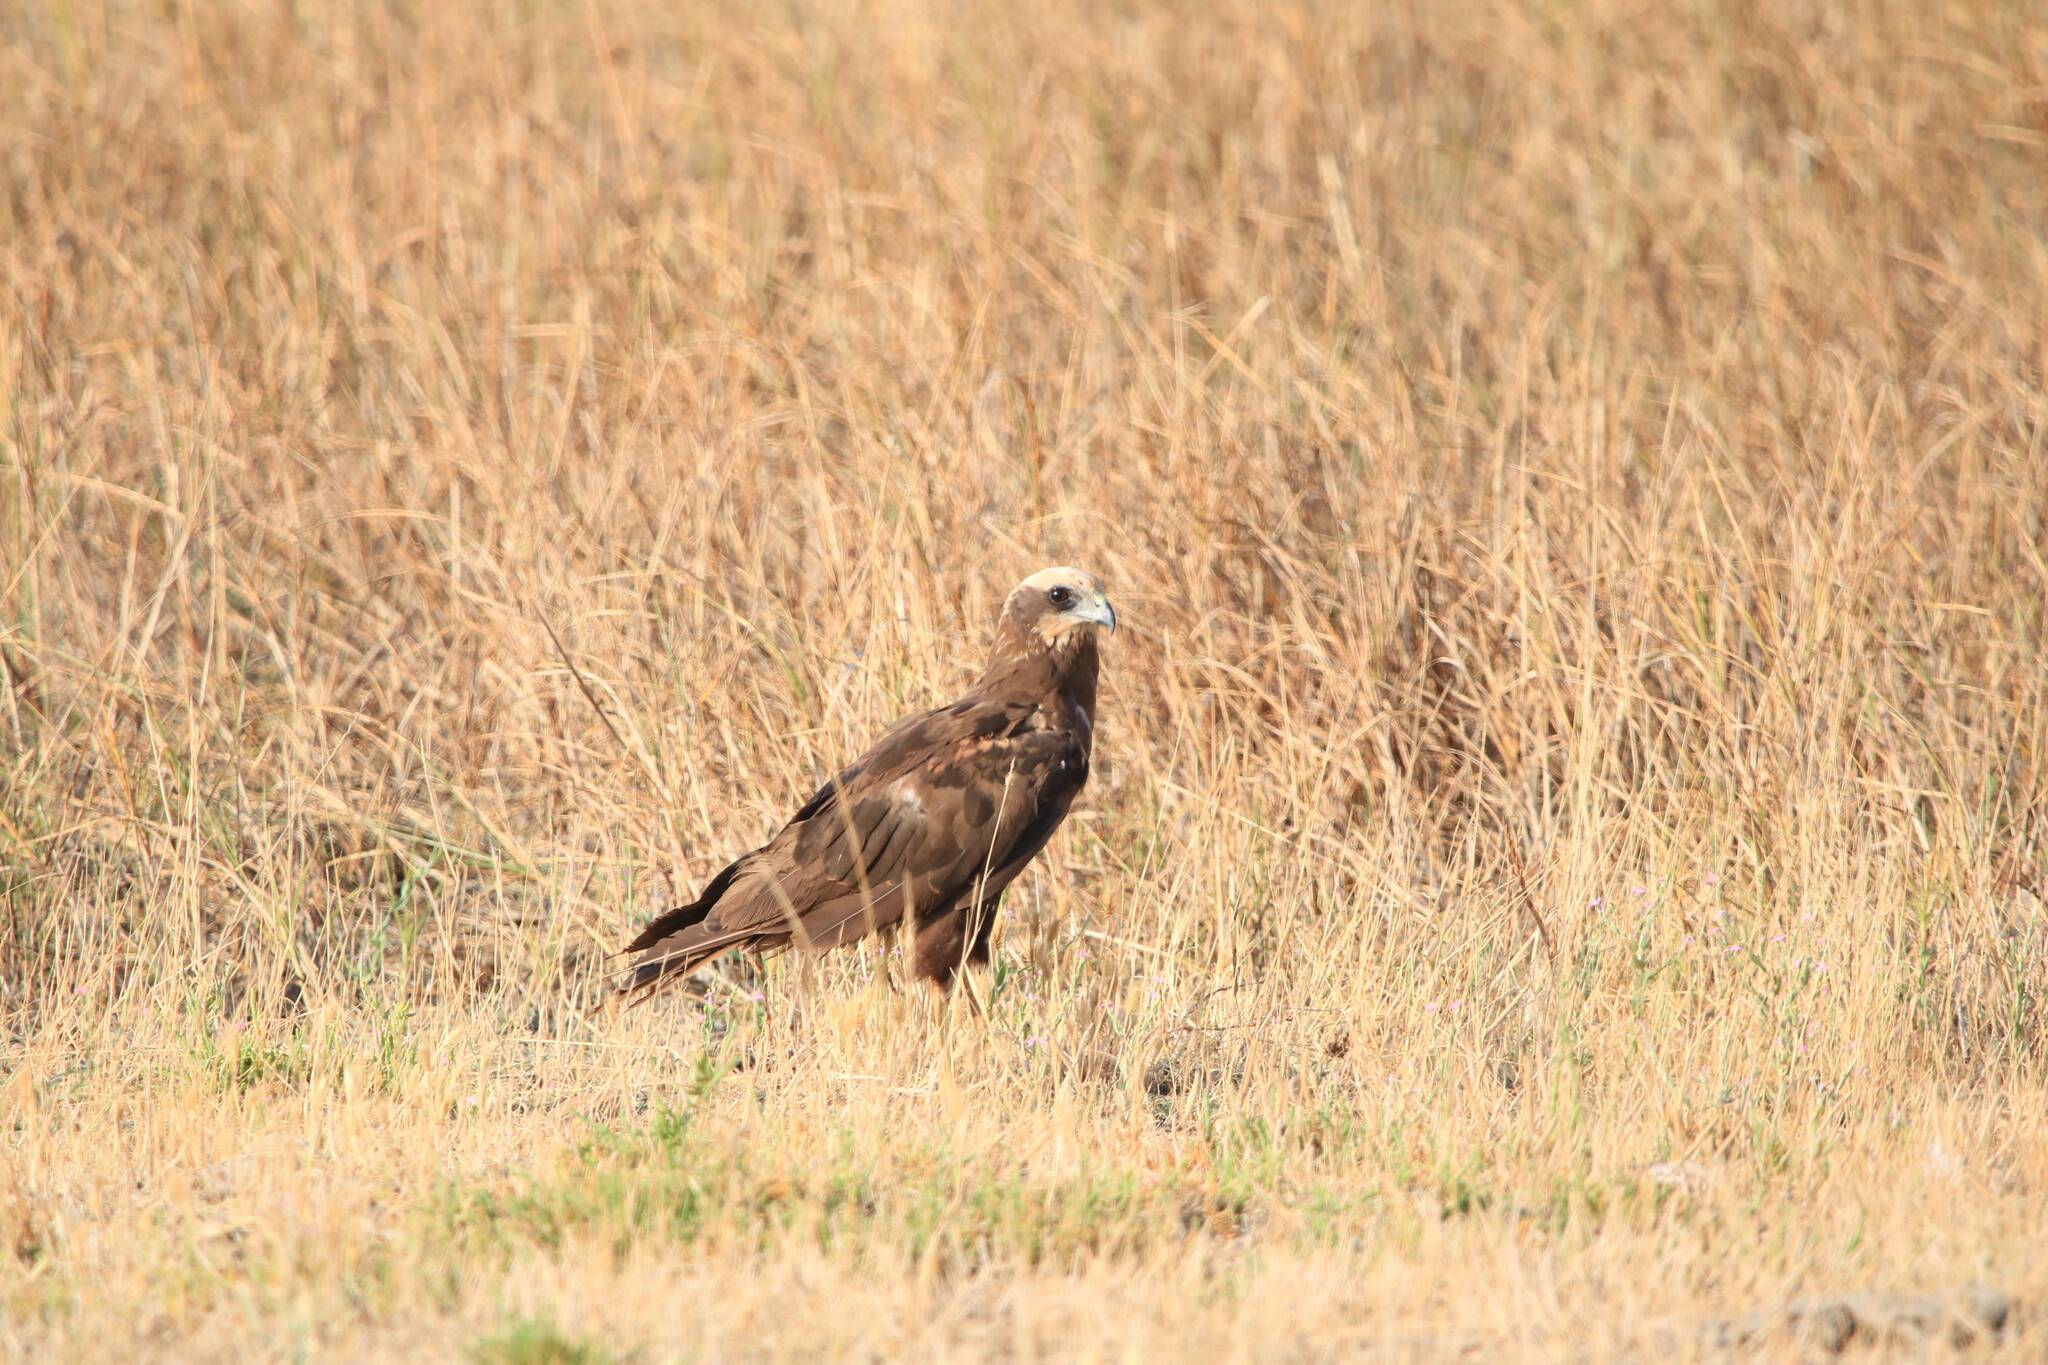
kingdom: Animalia
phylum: Chordata
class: Aves
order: Accipitriformes
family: Accipitridae
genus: Circus
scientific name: Circus aeruginosus
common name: Western marsh harrier
